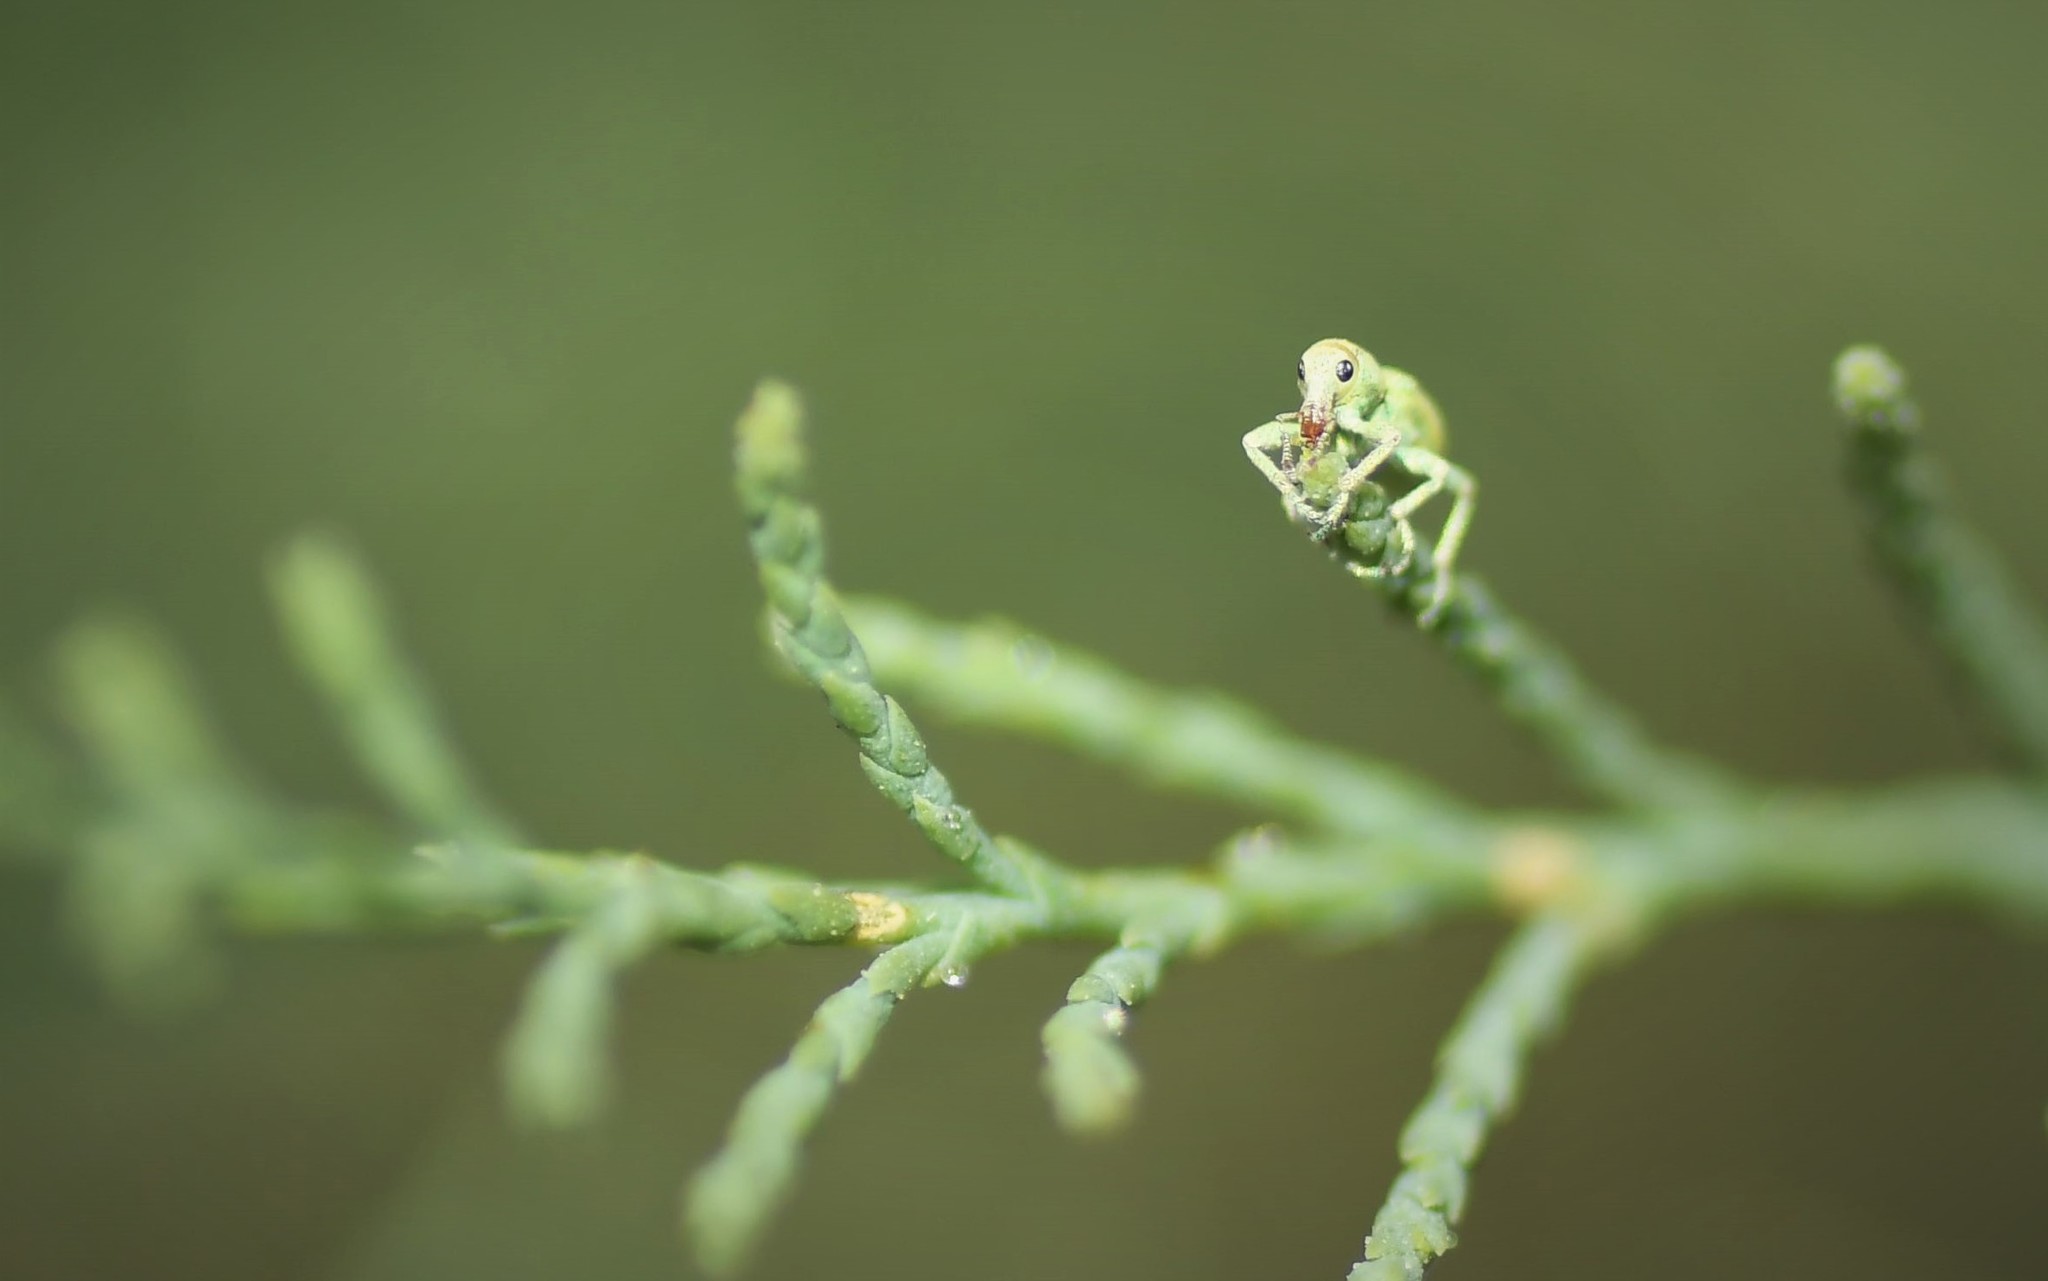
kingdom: Animalia
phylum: Arthropoda
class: Insecta
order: Coleoptera
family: Curculionidae
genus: Coniatus
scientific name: Coniatus splendidulus
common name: Splendid tamarisk weevil
